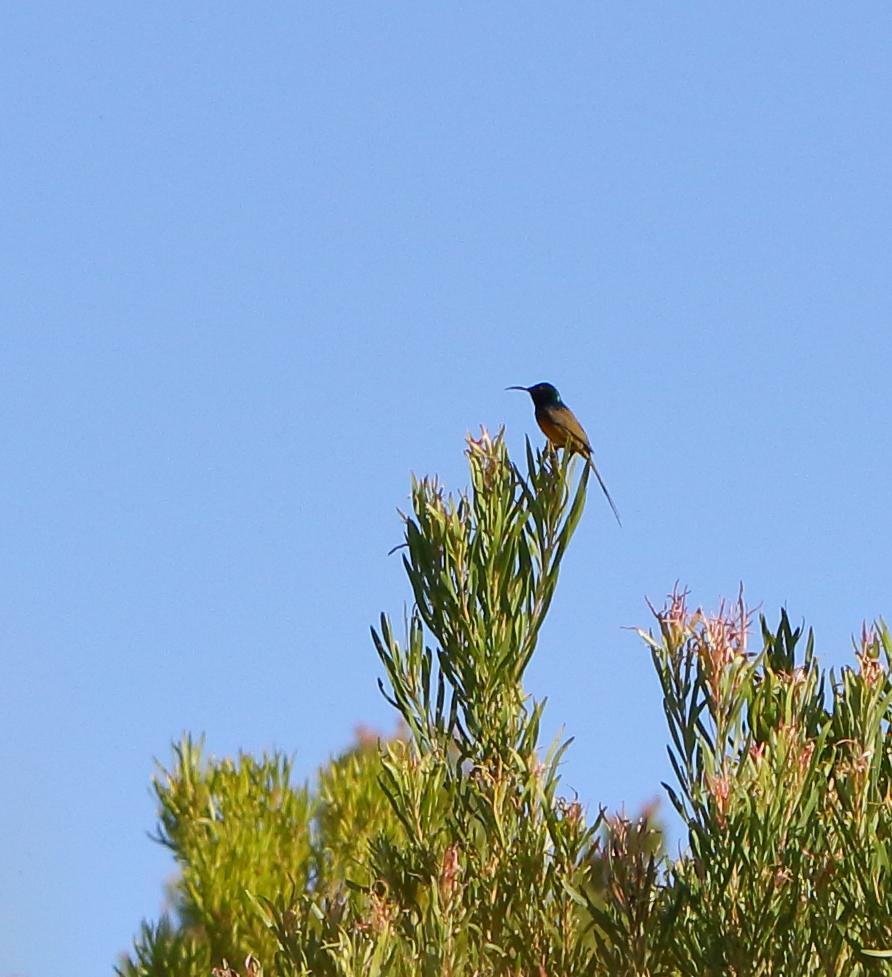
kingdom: Animalia
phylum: Chordata
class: Aves
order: Passeriformes
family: Nectariniidae
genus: Anthobaphes
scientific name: Anthobaphes violacea
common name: Orange-breasted sunbird
